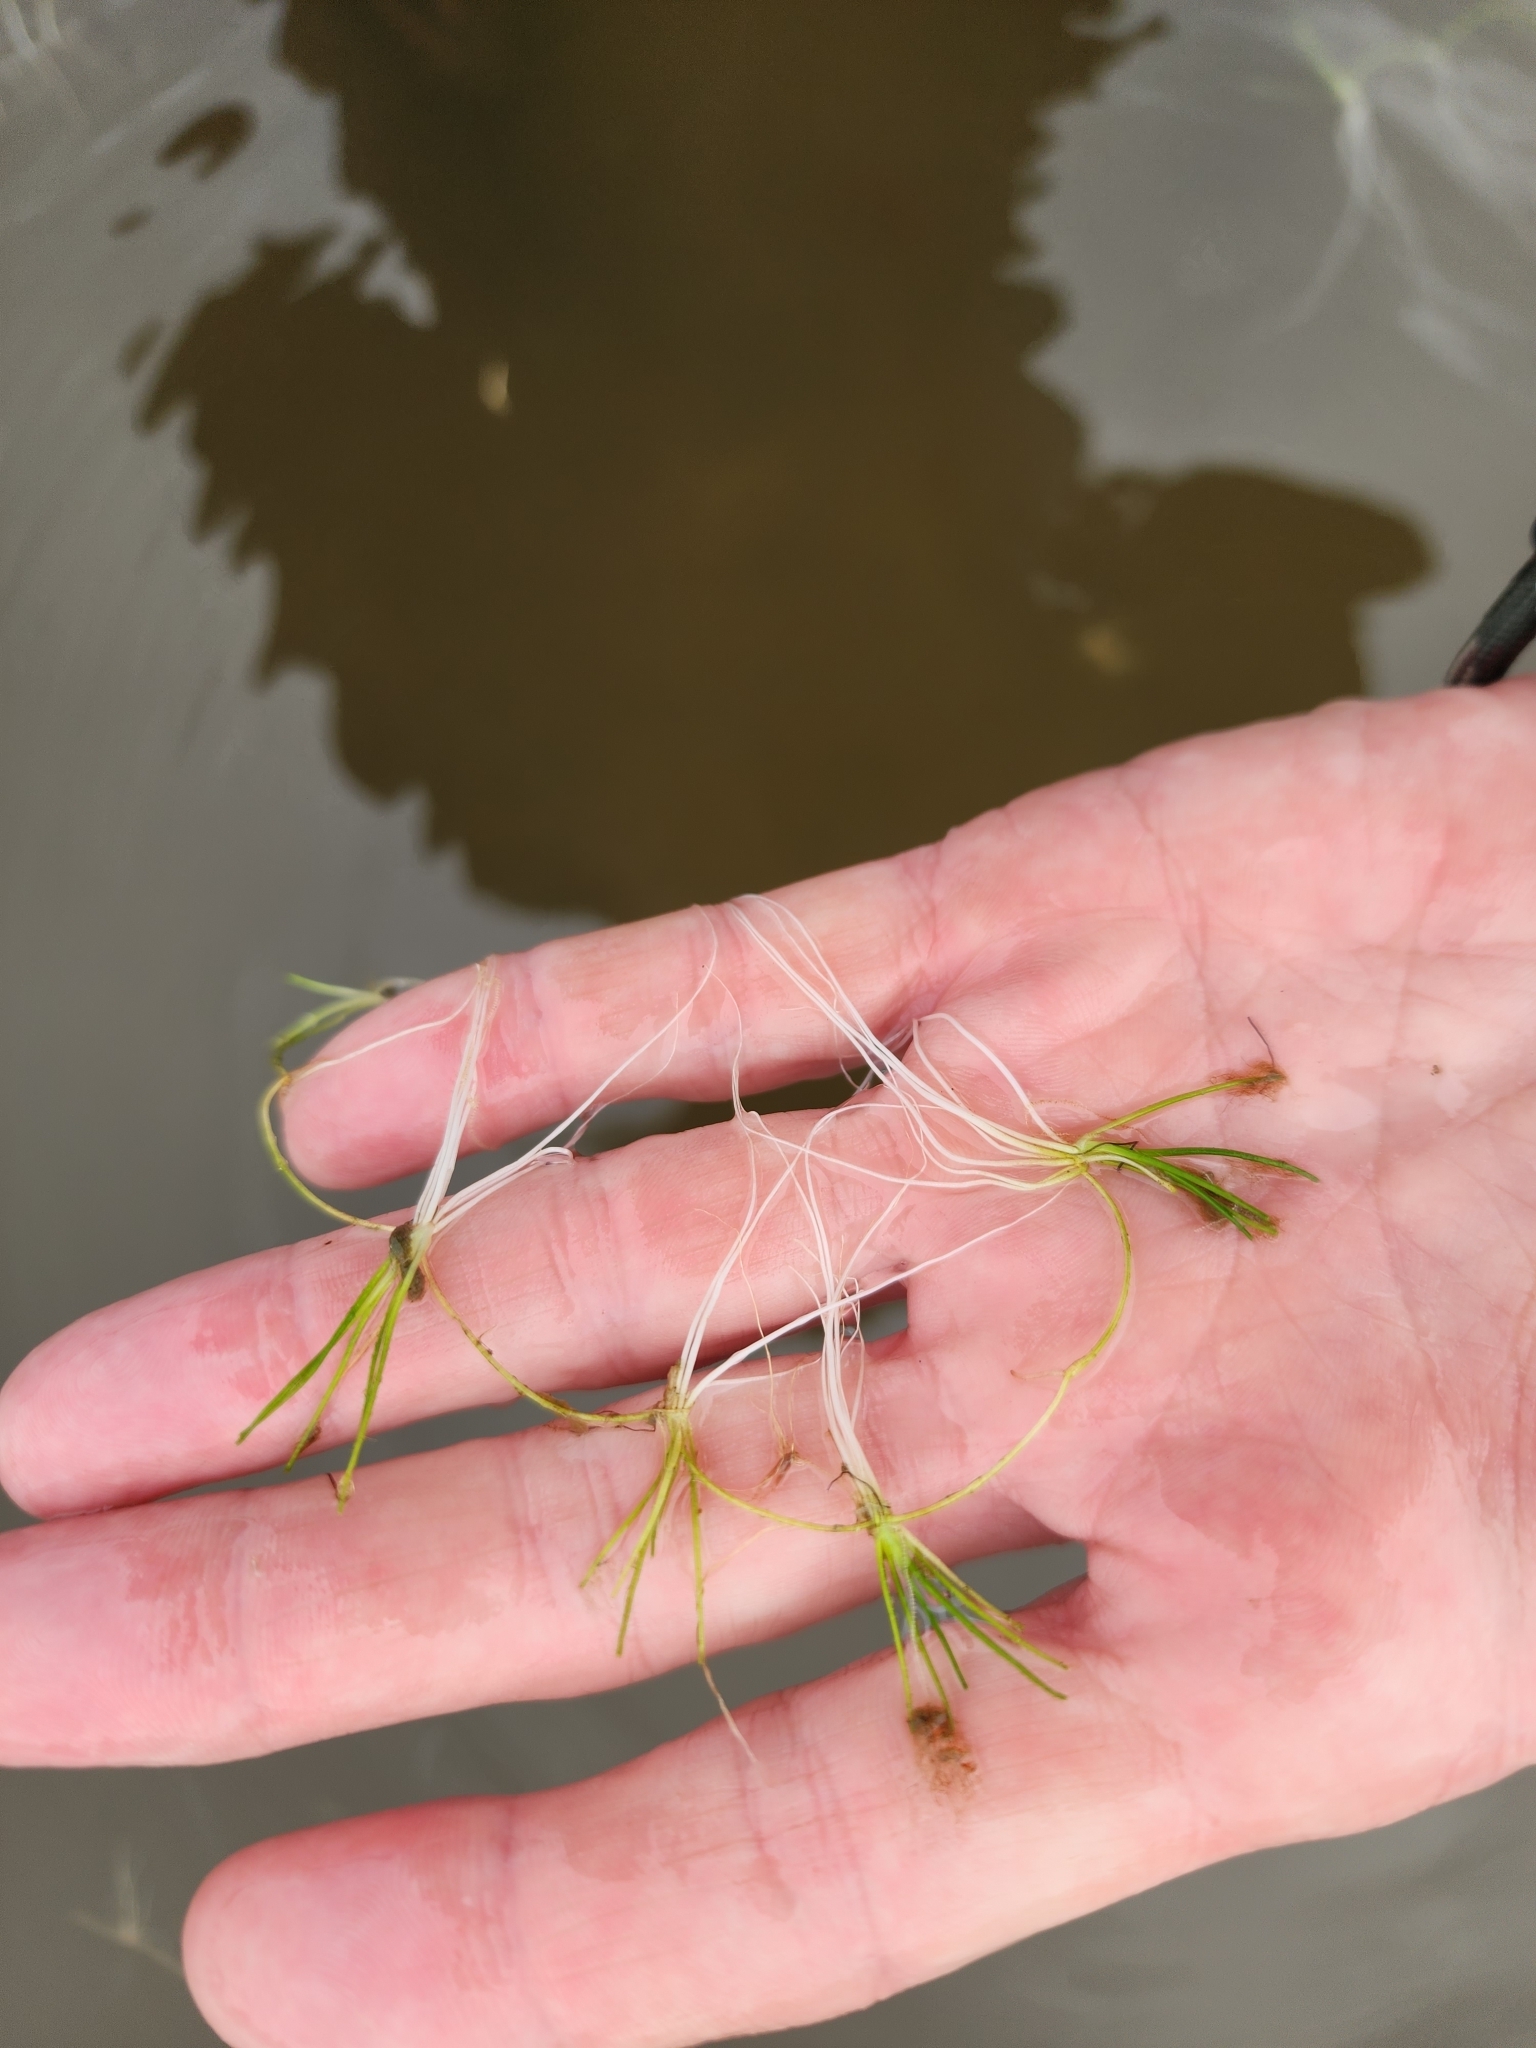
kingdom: Plantae
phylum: Tracheophyta
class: Magnoliopsida
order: Lamiales
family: Plantaginaceae
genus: Littorella
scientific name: Littorella americana
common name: American littorella
